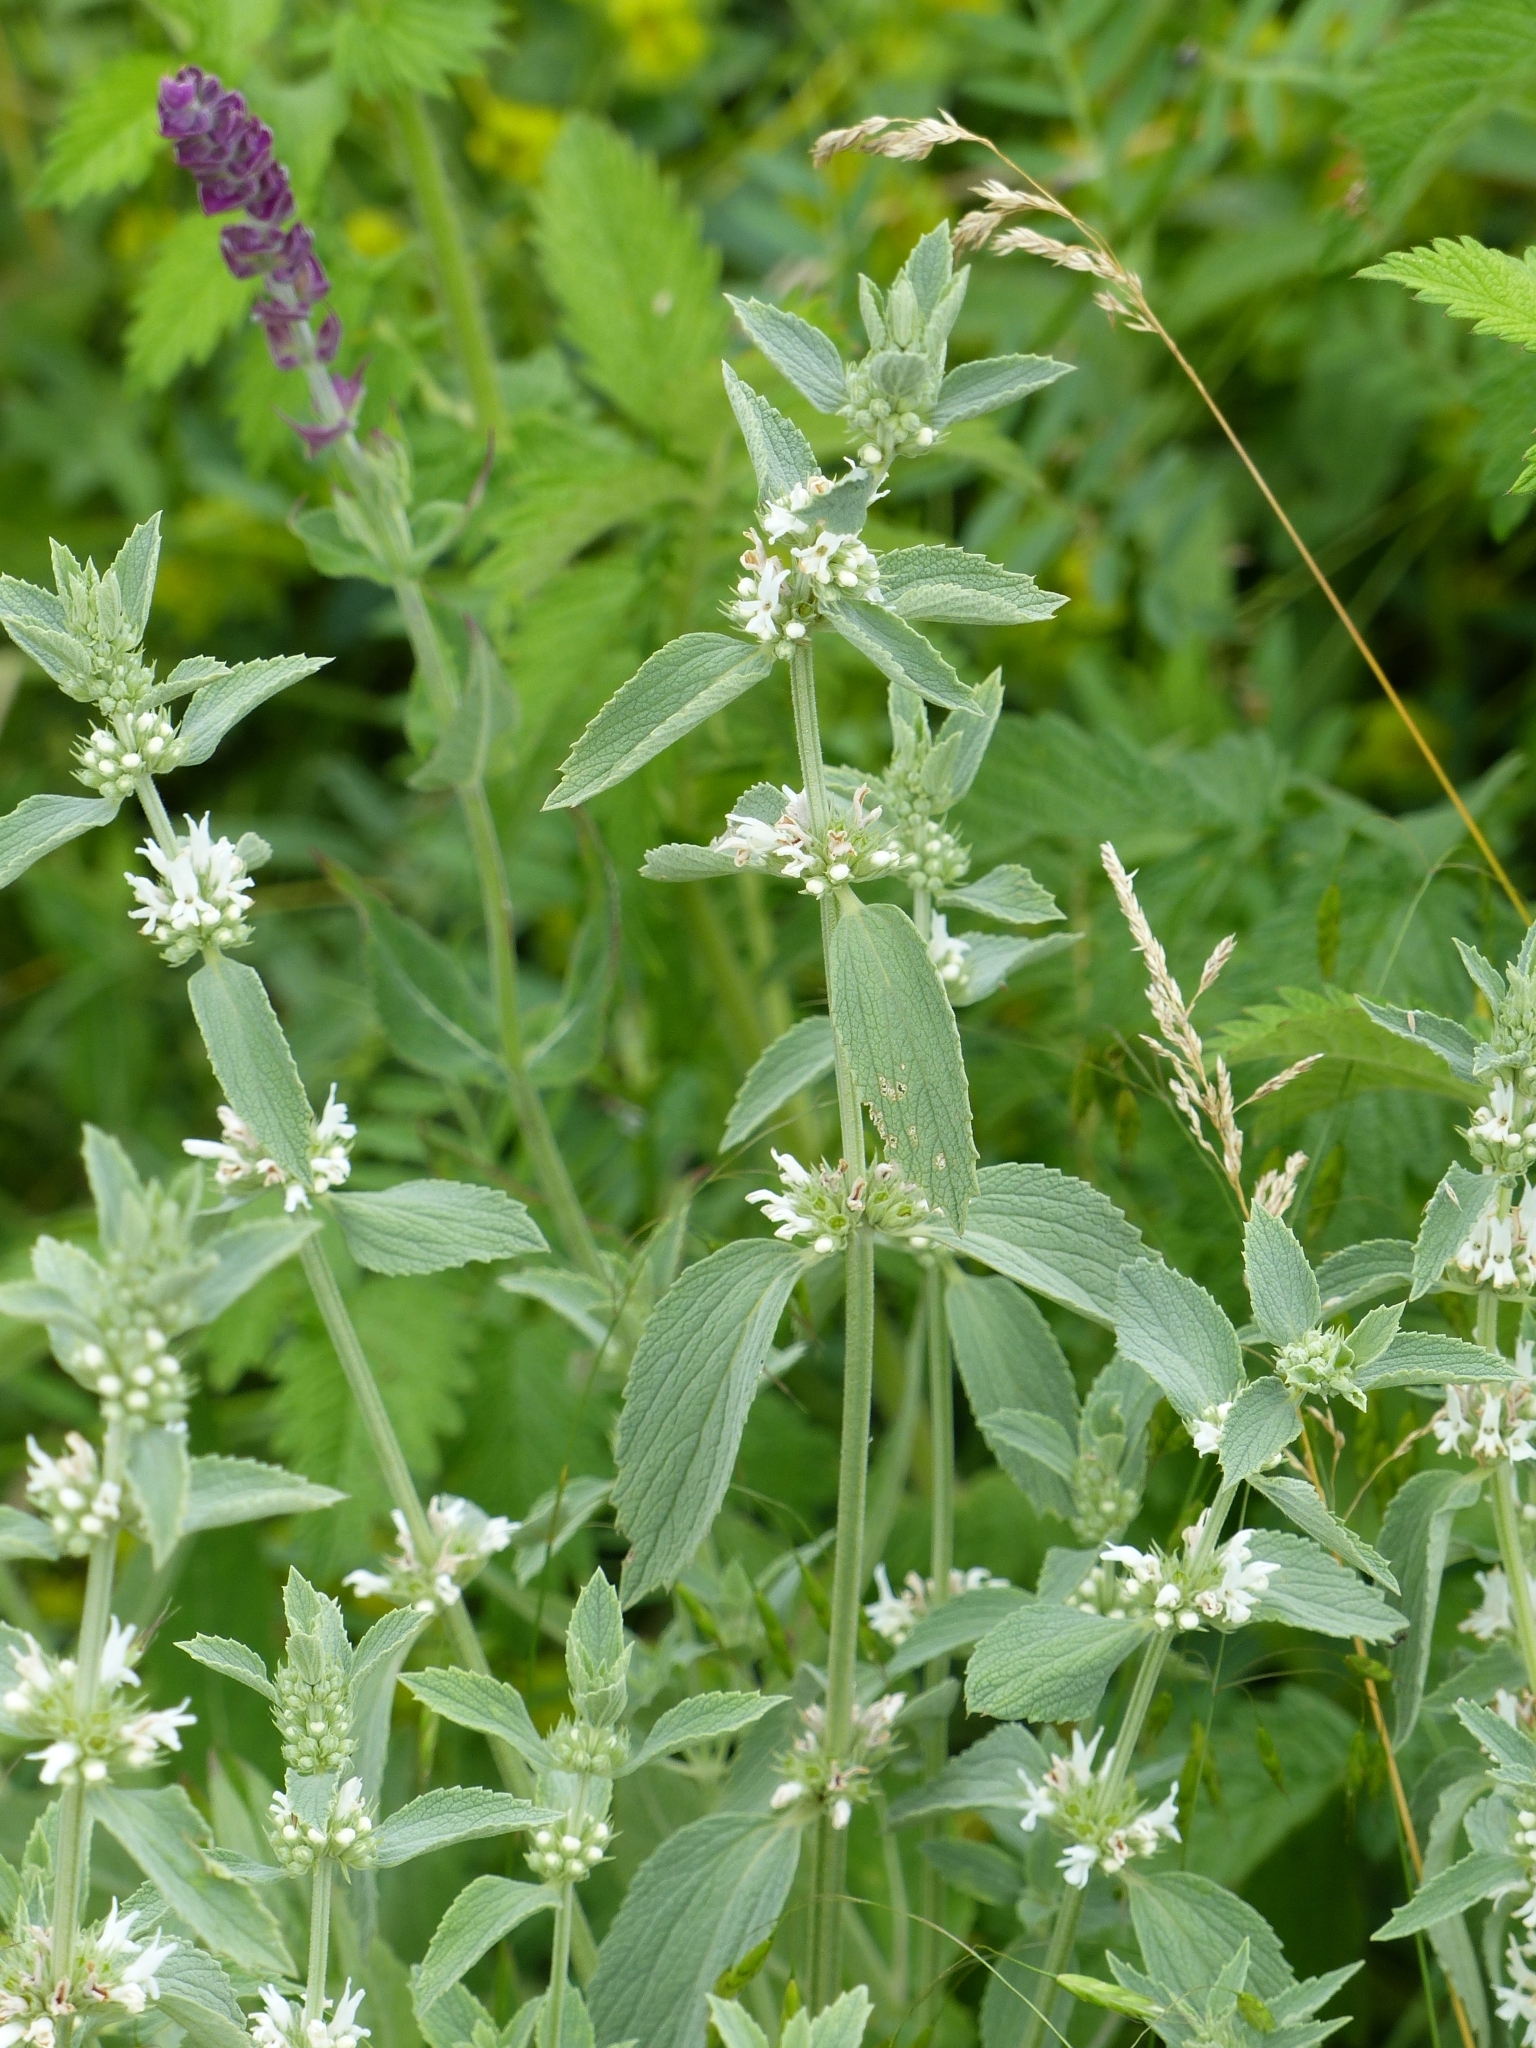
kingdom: Plantae
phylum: Tracheophyta
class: Magnoliopsida
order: Lamiales
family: Lamiaceae
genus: Marrubium
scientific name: Marrubium peregrinum
